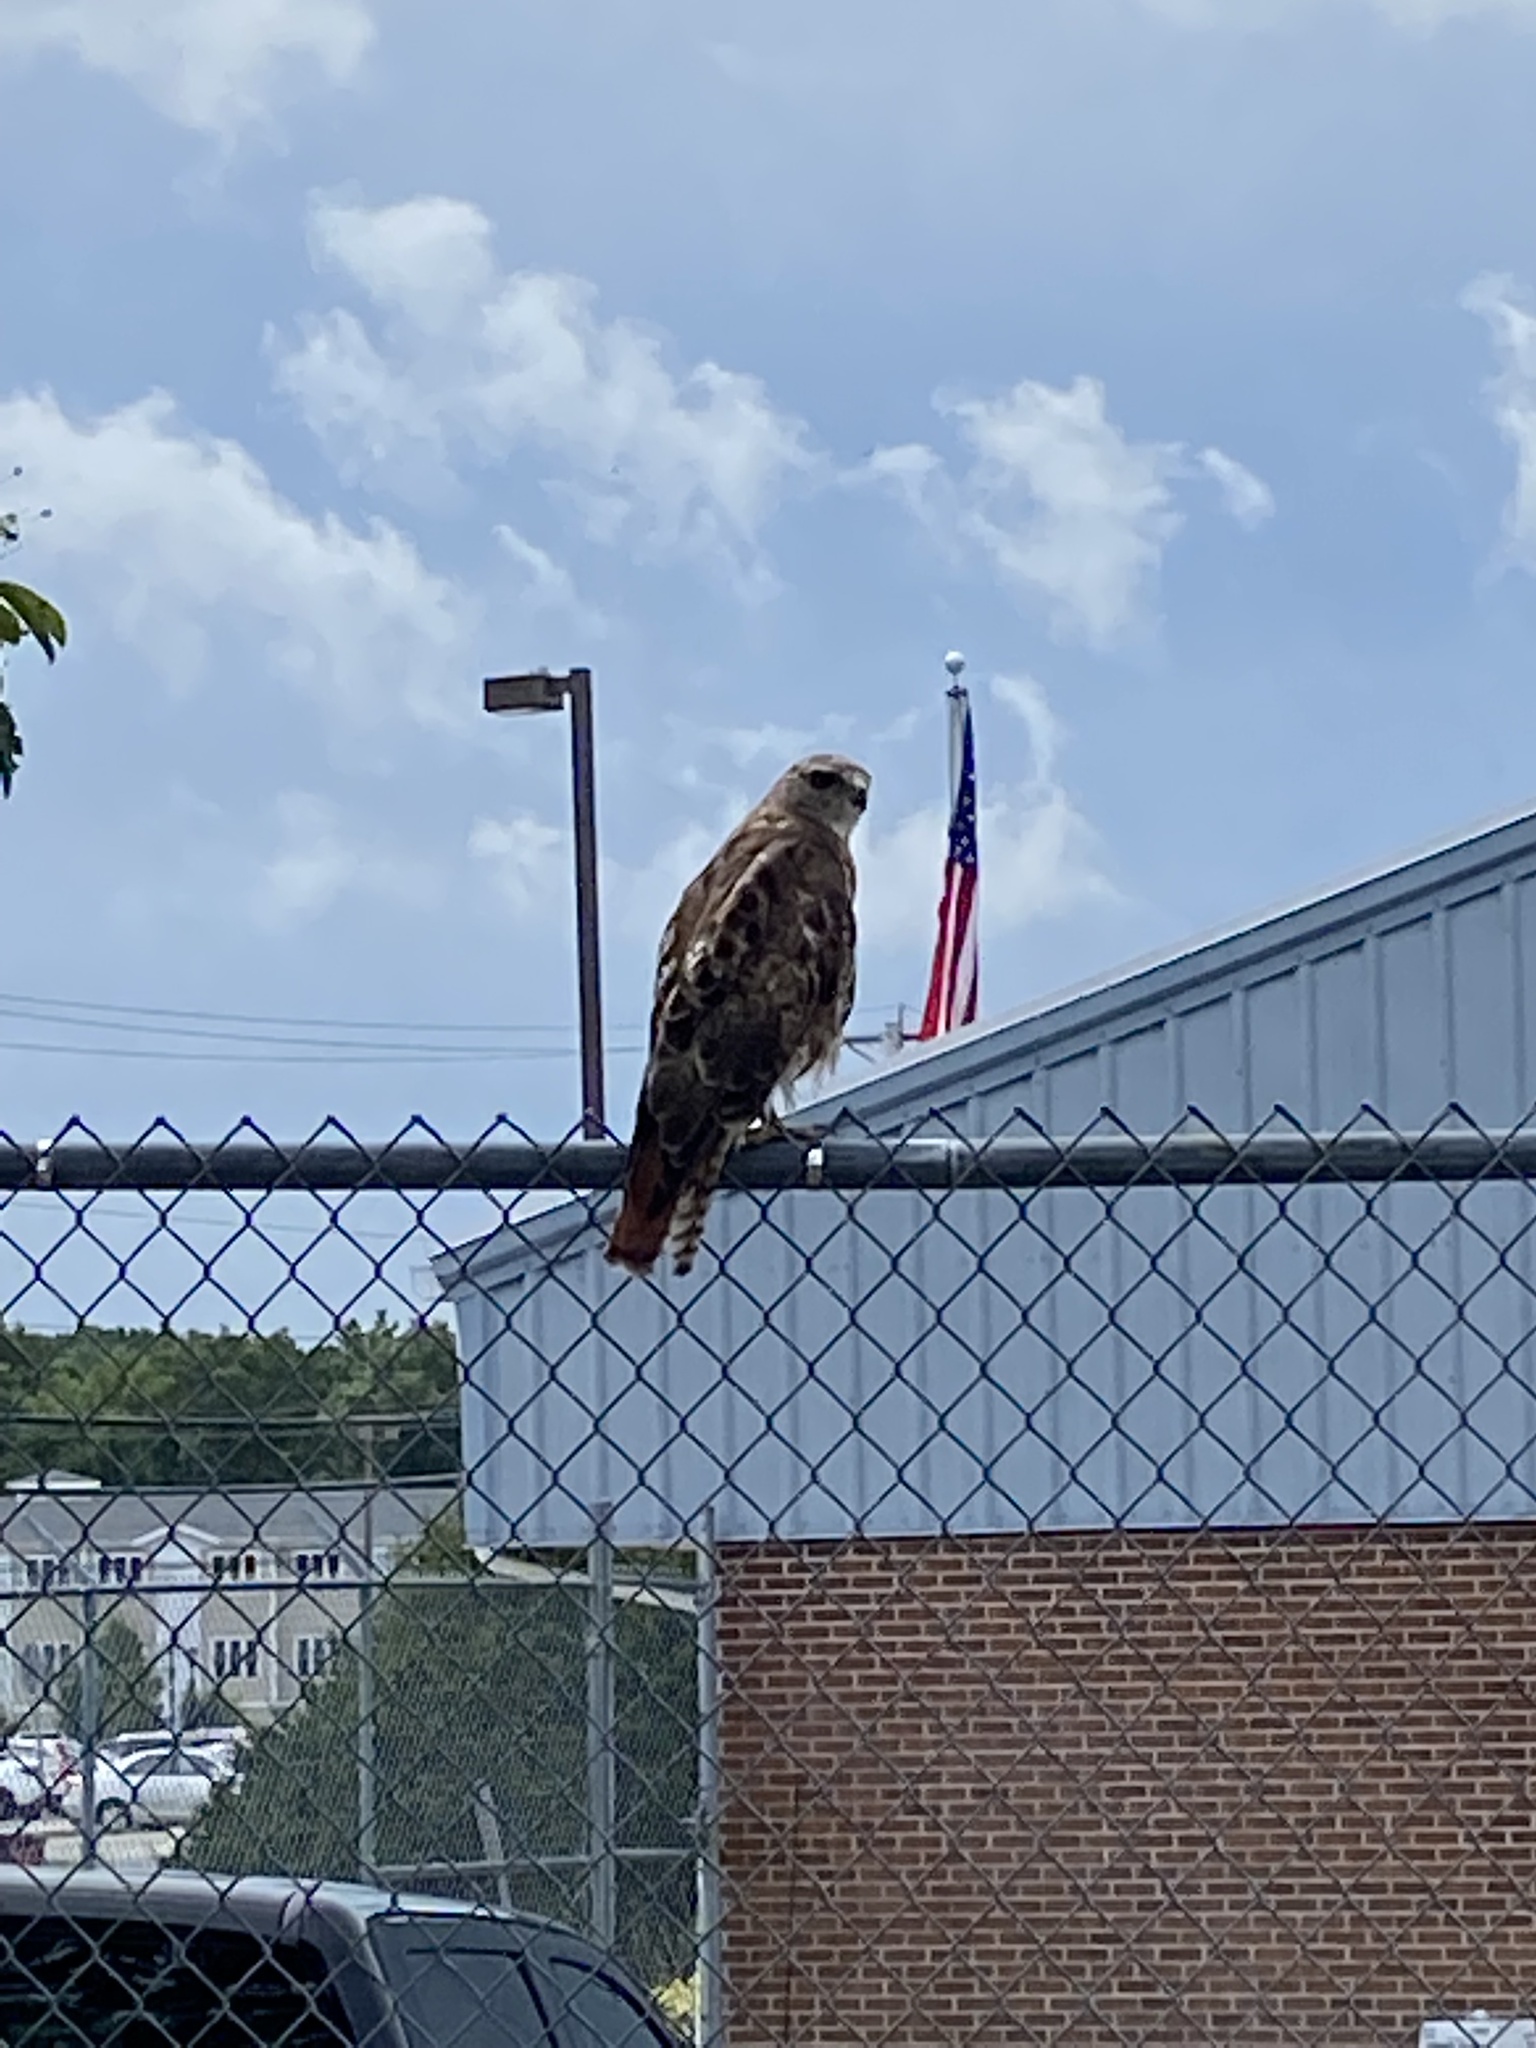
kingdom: Animalia
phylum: Chordata
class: Aves
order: Accipitriformes
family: Accipitridae
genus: Buteo
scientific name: Buteo jamaicensis
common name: Red-tailed hawk
